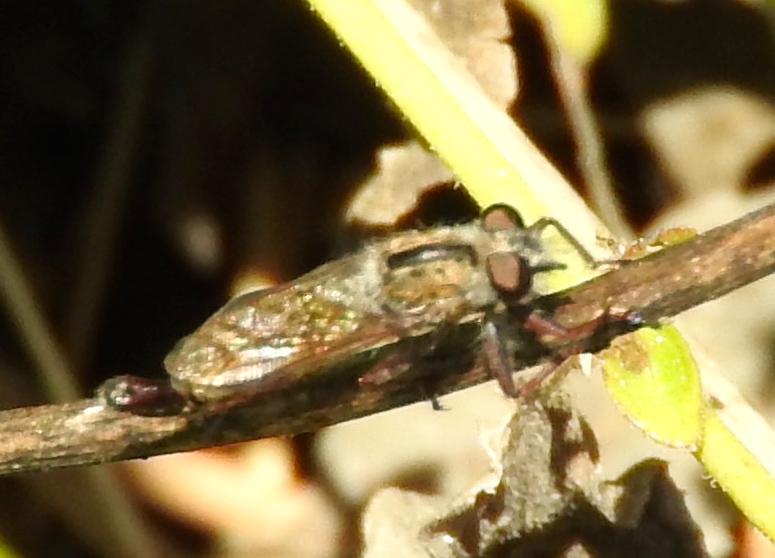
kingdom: Animalia
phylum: Arthropoda
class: Insecta
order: Diptera
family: Asilidae
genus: Efferia
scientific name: Efferia
